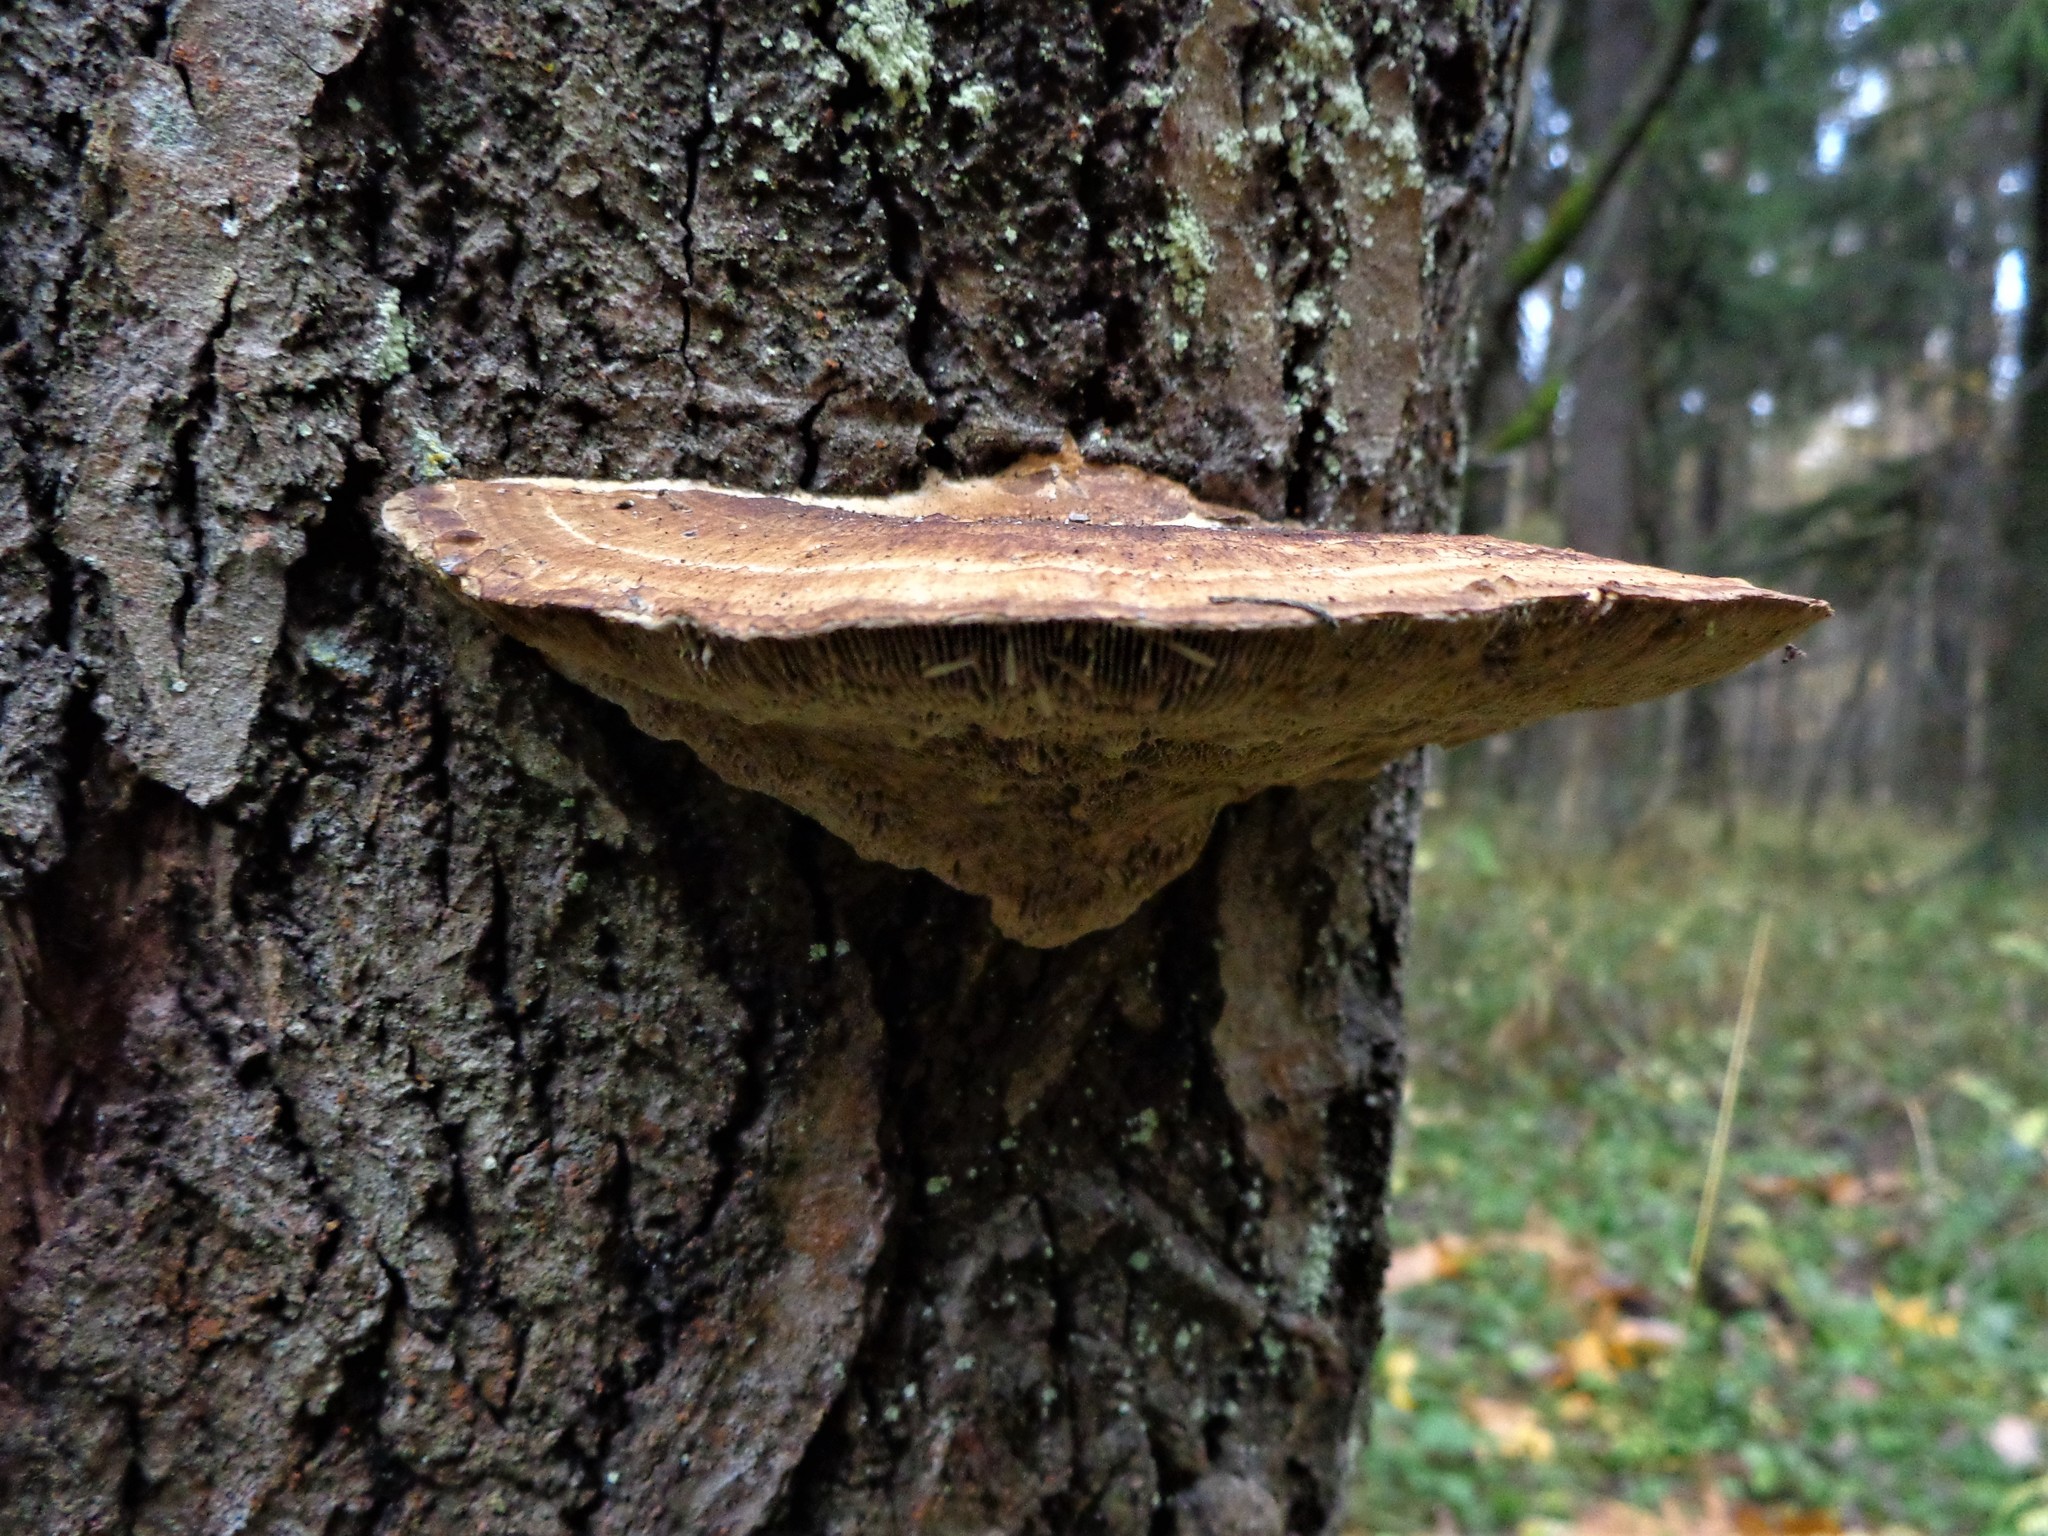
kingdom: Fungi
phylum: Basidiomycota
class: Agaricomycetes
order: Polyporales
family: Polyporaceae
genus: Daedaleopsis
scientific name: Daedaleopsis confragosa
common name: Blushing bracket
